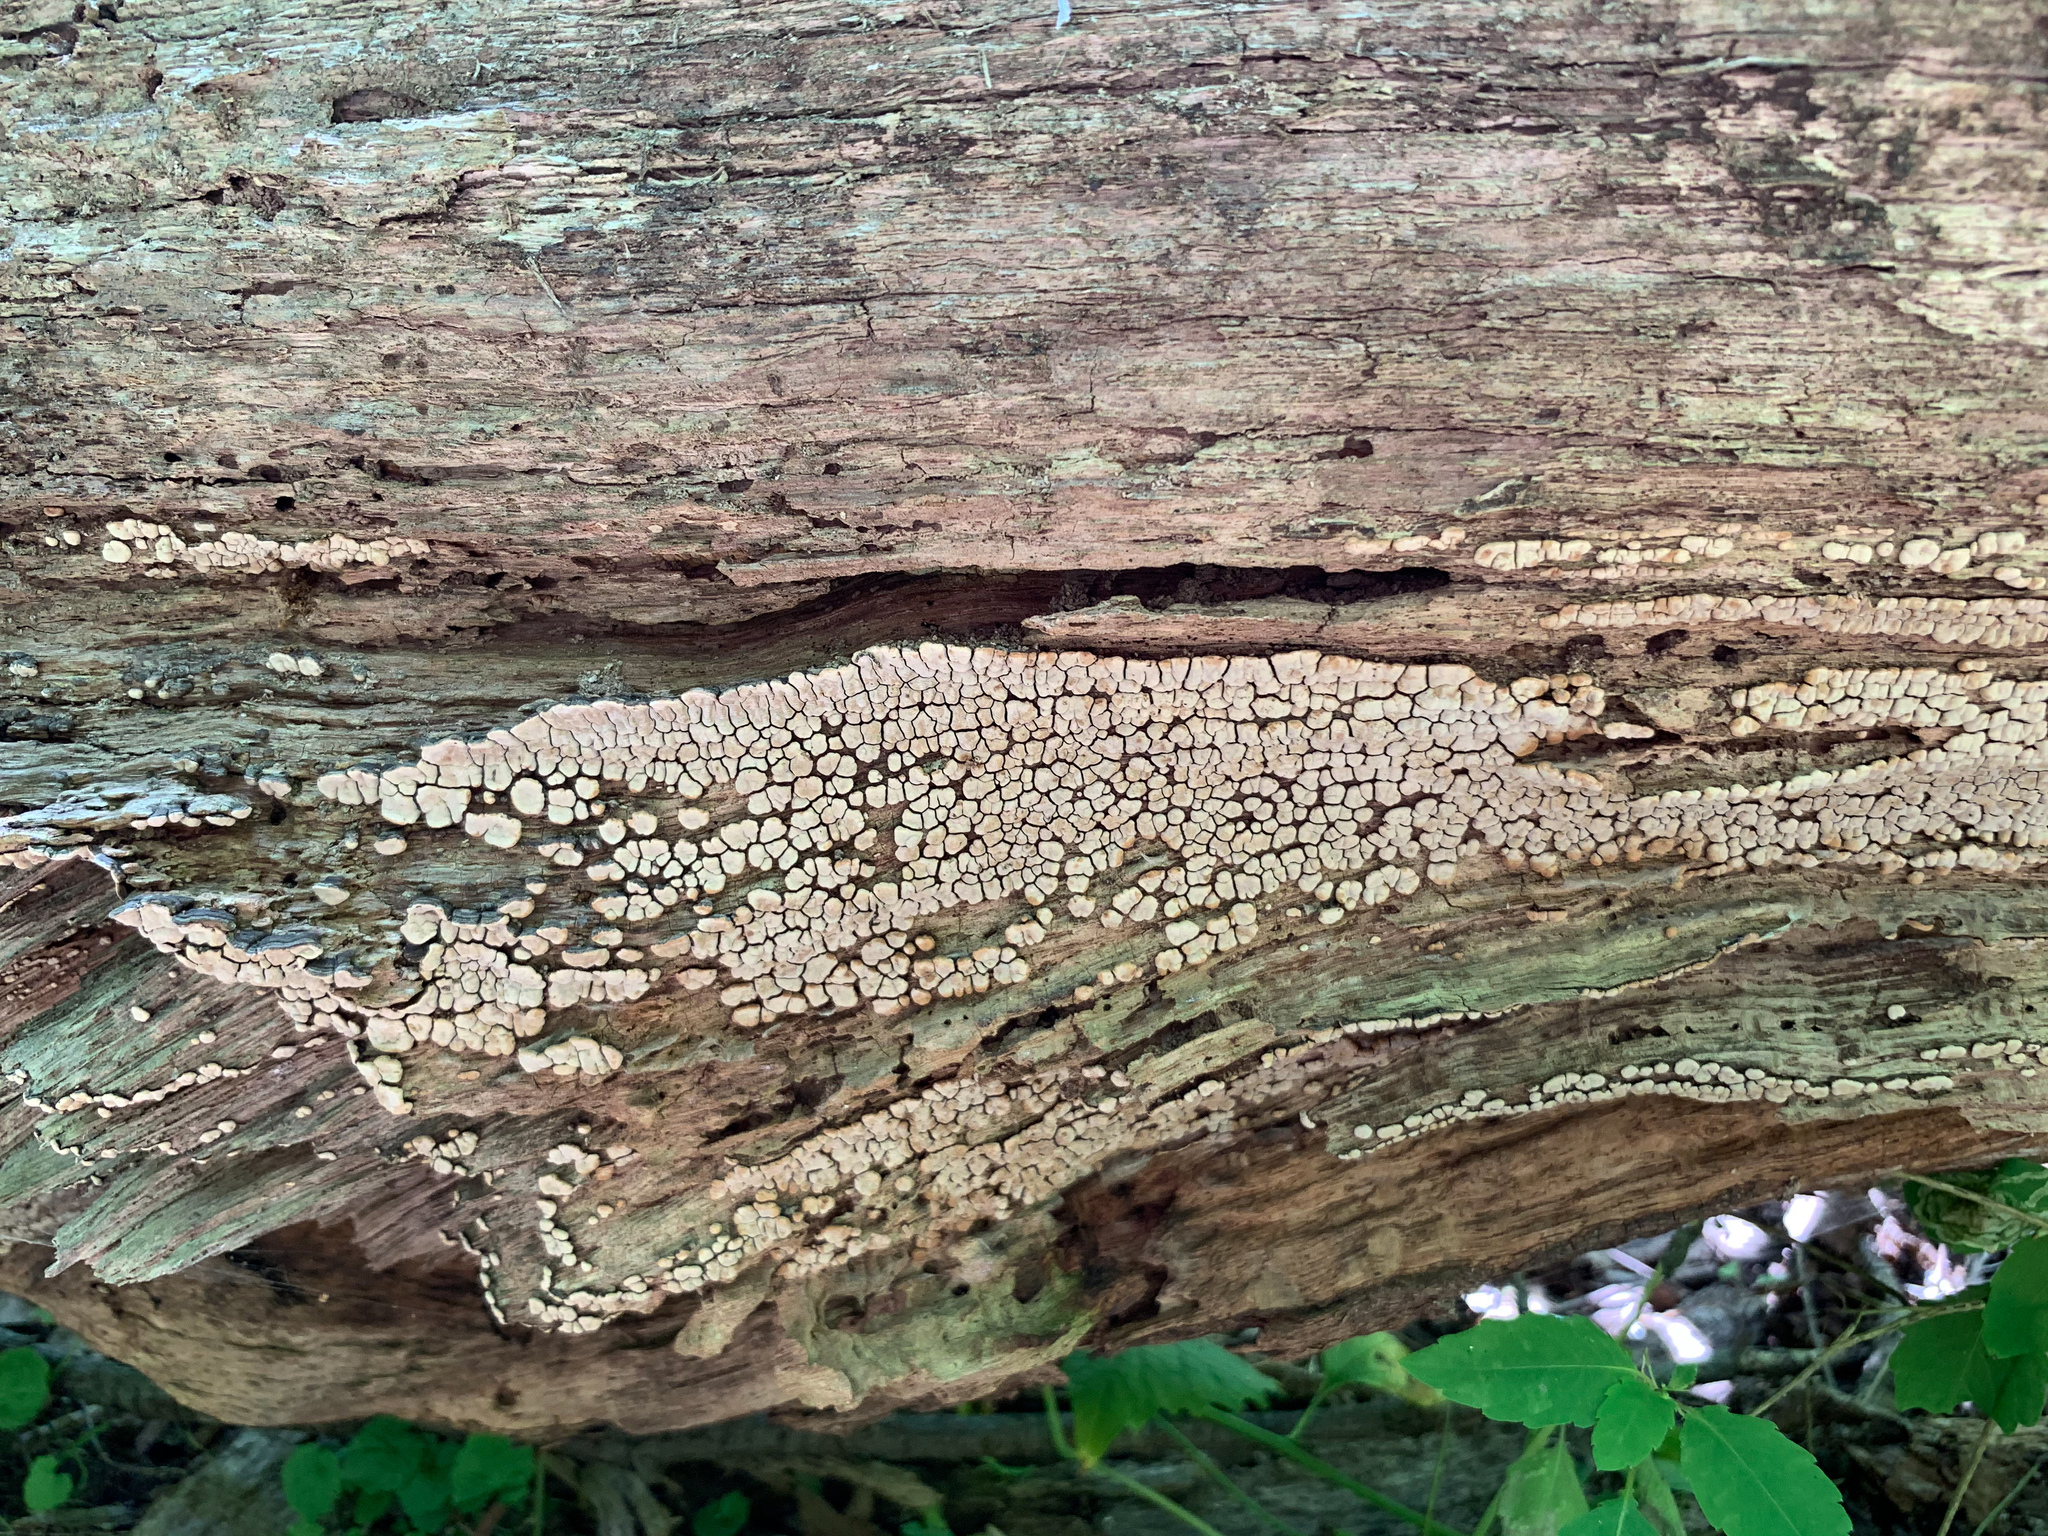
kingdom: Fungi
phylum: Basidiomycota
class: Agaricomycetes
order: Russulales
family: Stereaceae
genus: Xylobolus
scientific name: Xylobolus frustulatus
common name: Ceramic parchment
